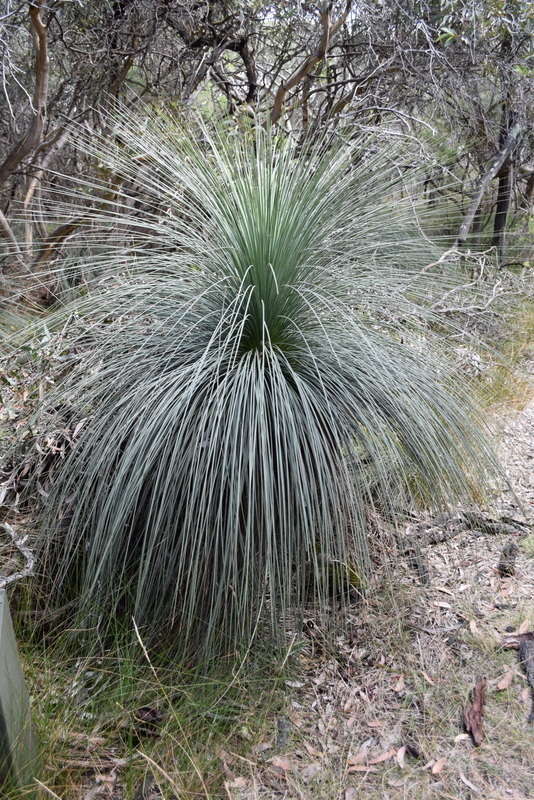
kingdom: Plantae
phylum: Tracheophyta
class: Liliopsida
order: Asparagales
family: Asphodelaceae
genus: Xanthorrhoea
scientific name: Xanthorrhoea australis
